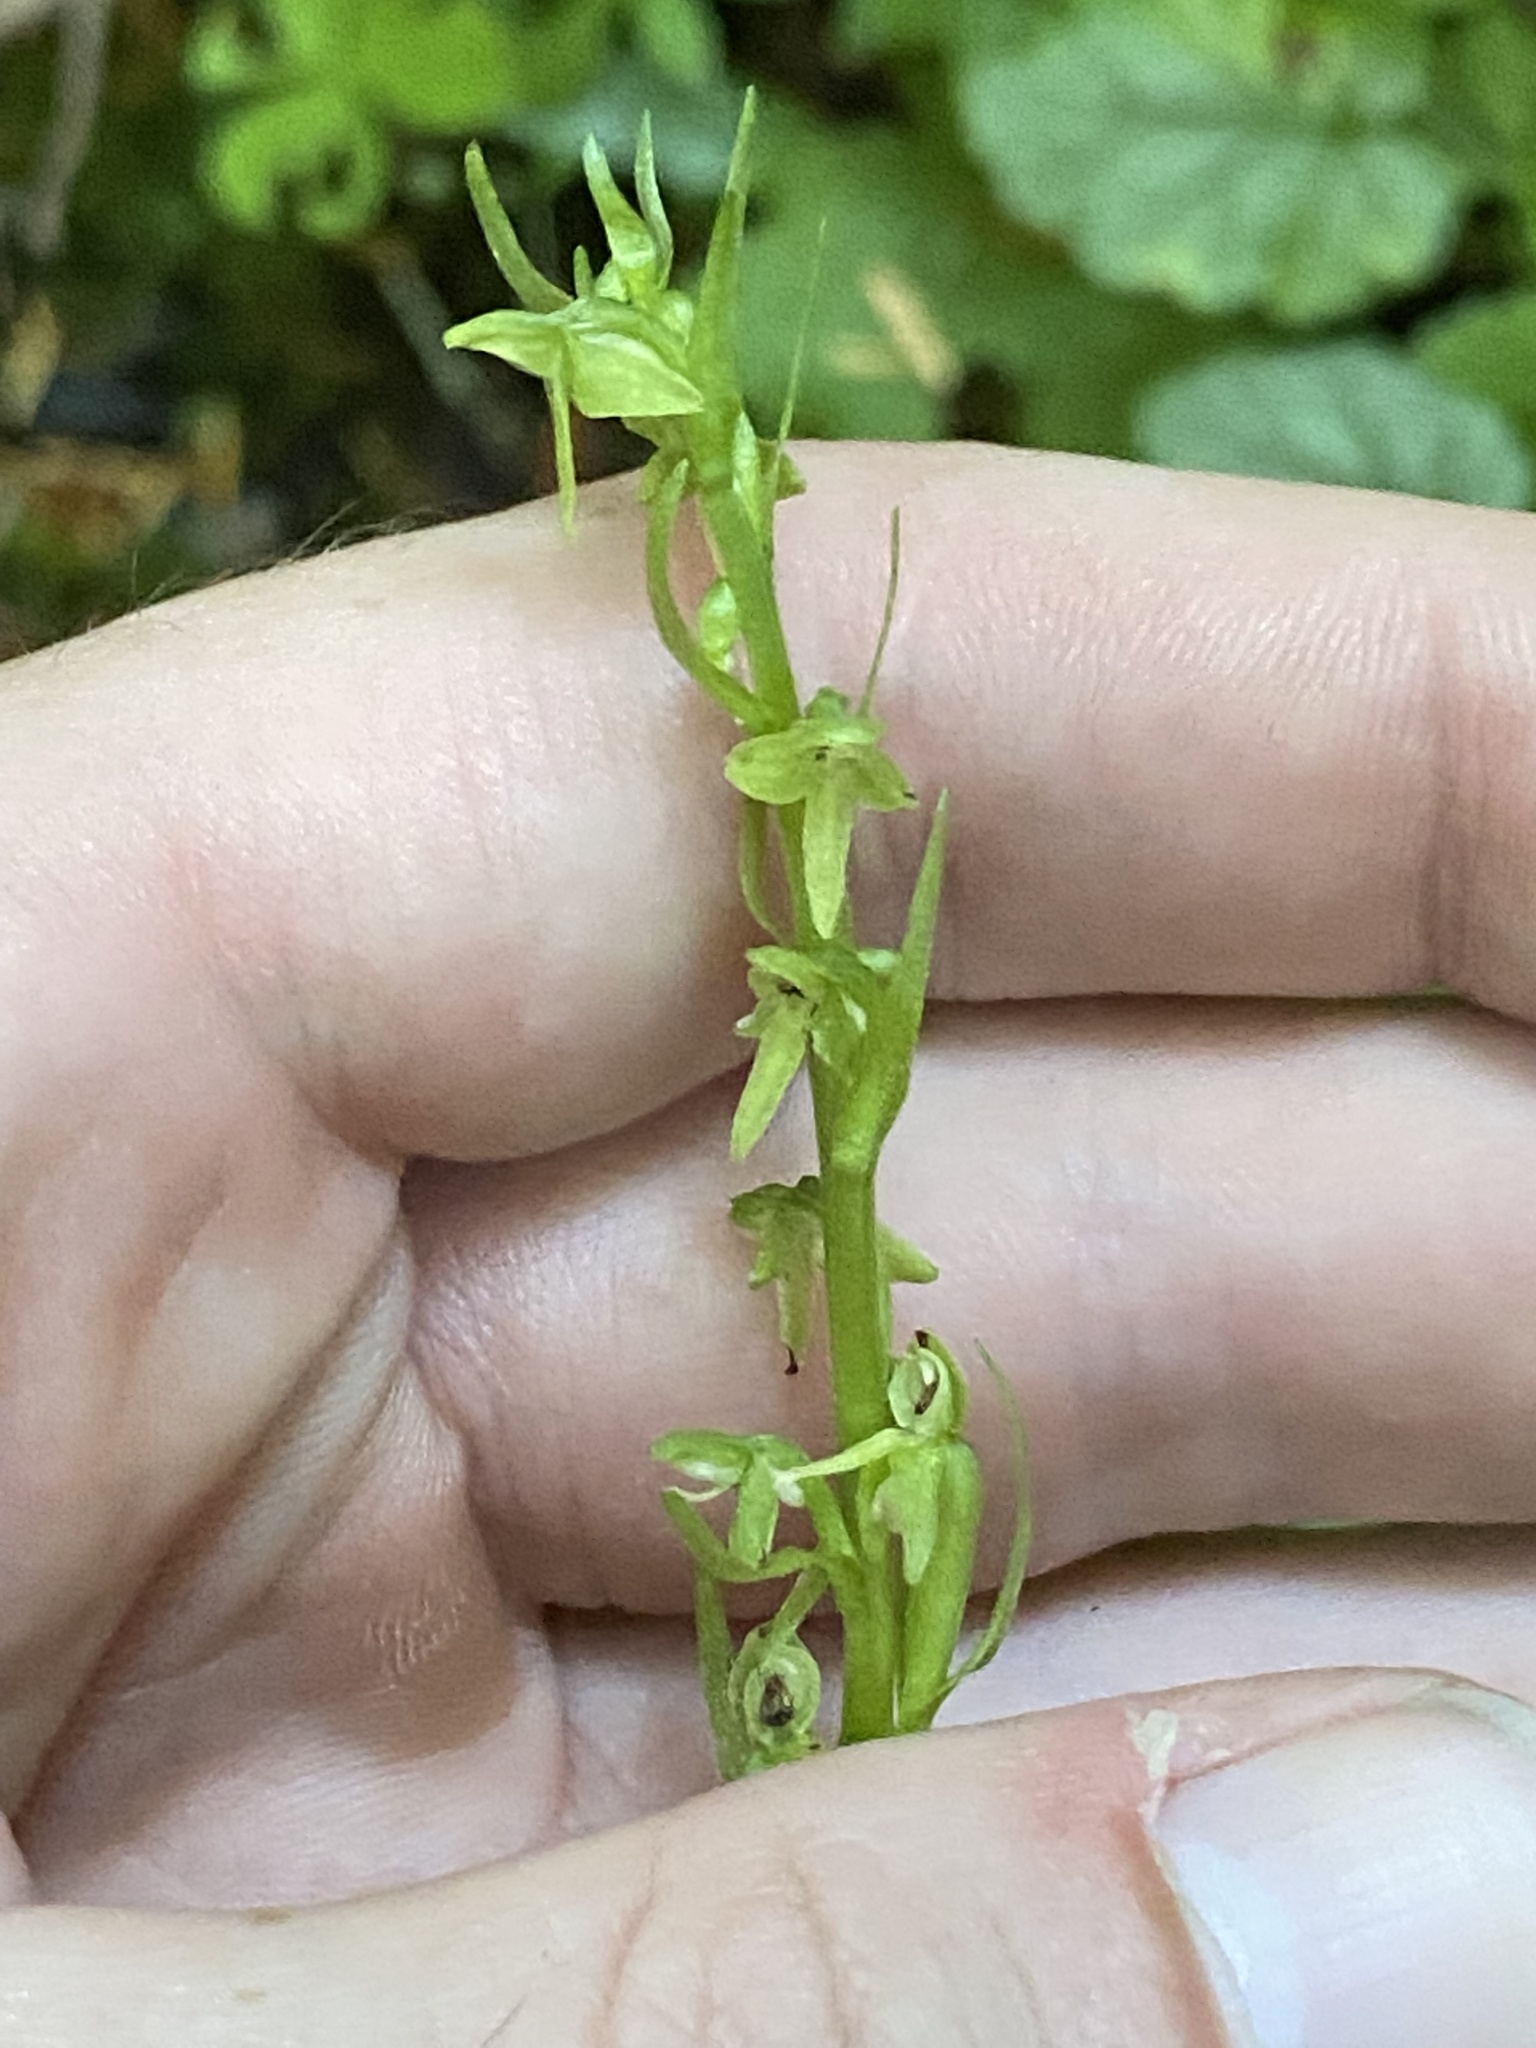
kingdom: Plantae
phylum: Tracheophyta
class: Liliopsida
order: Asparagales
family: Orchidaceae
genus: Platanthera
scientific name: Platanthera stricta
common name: Slender bog orchid
